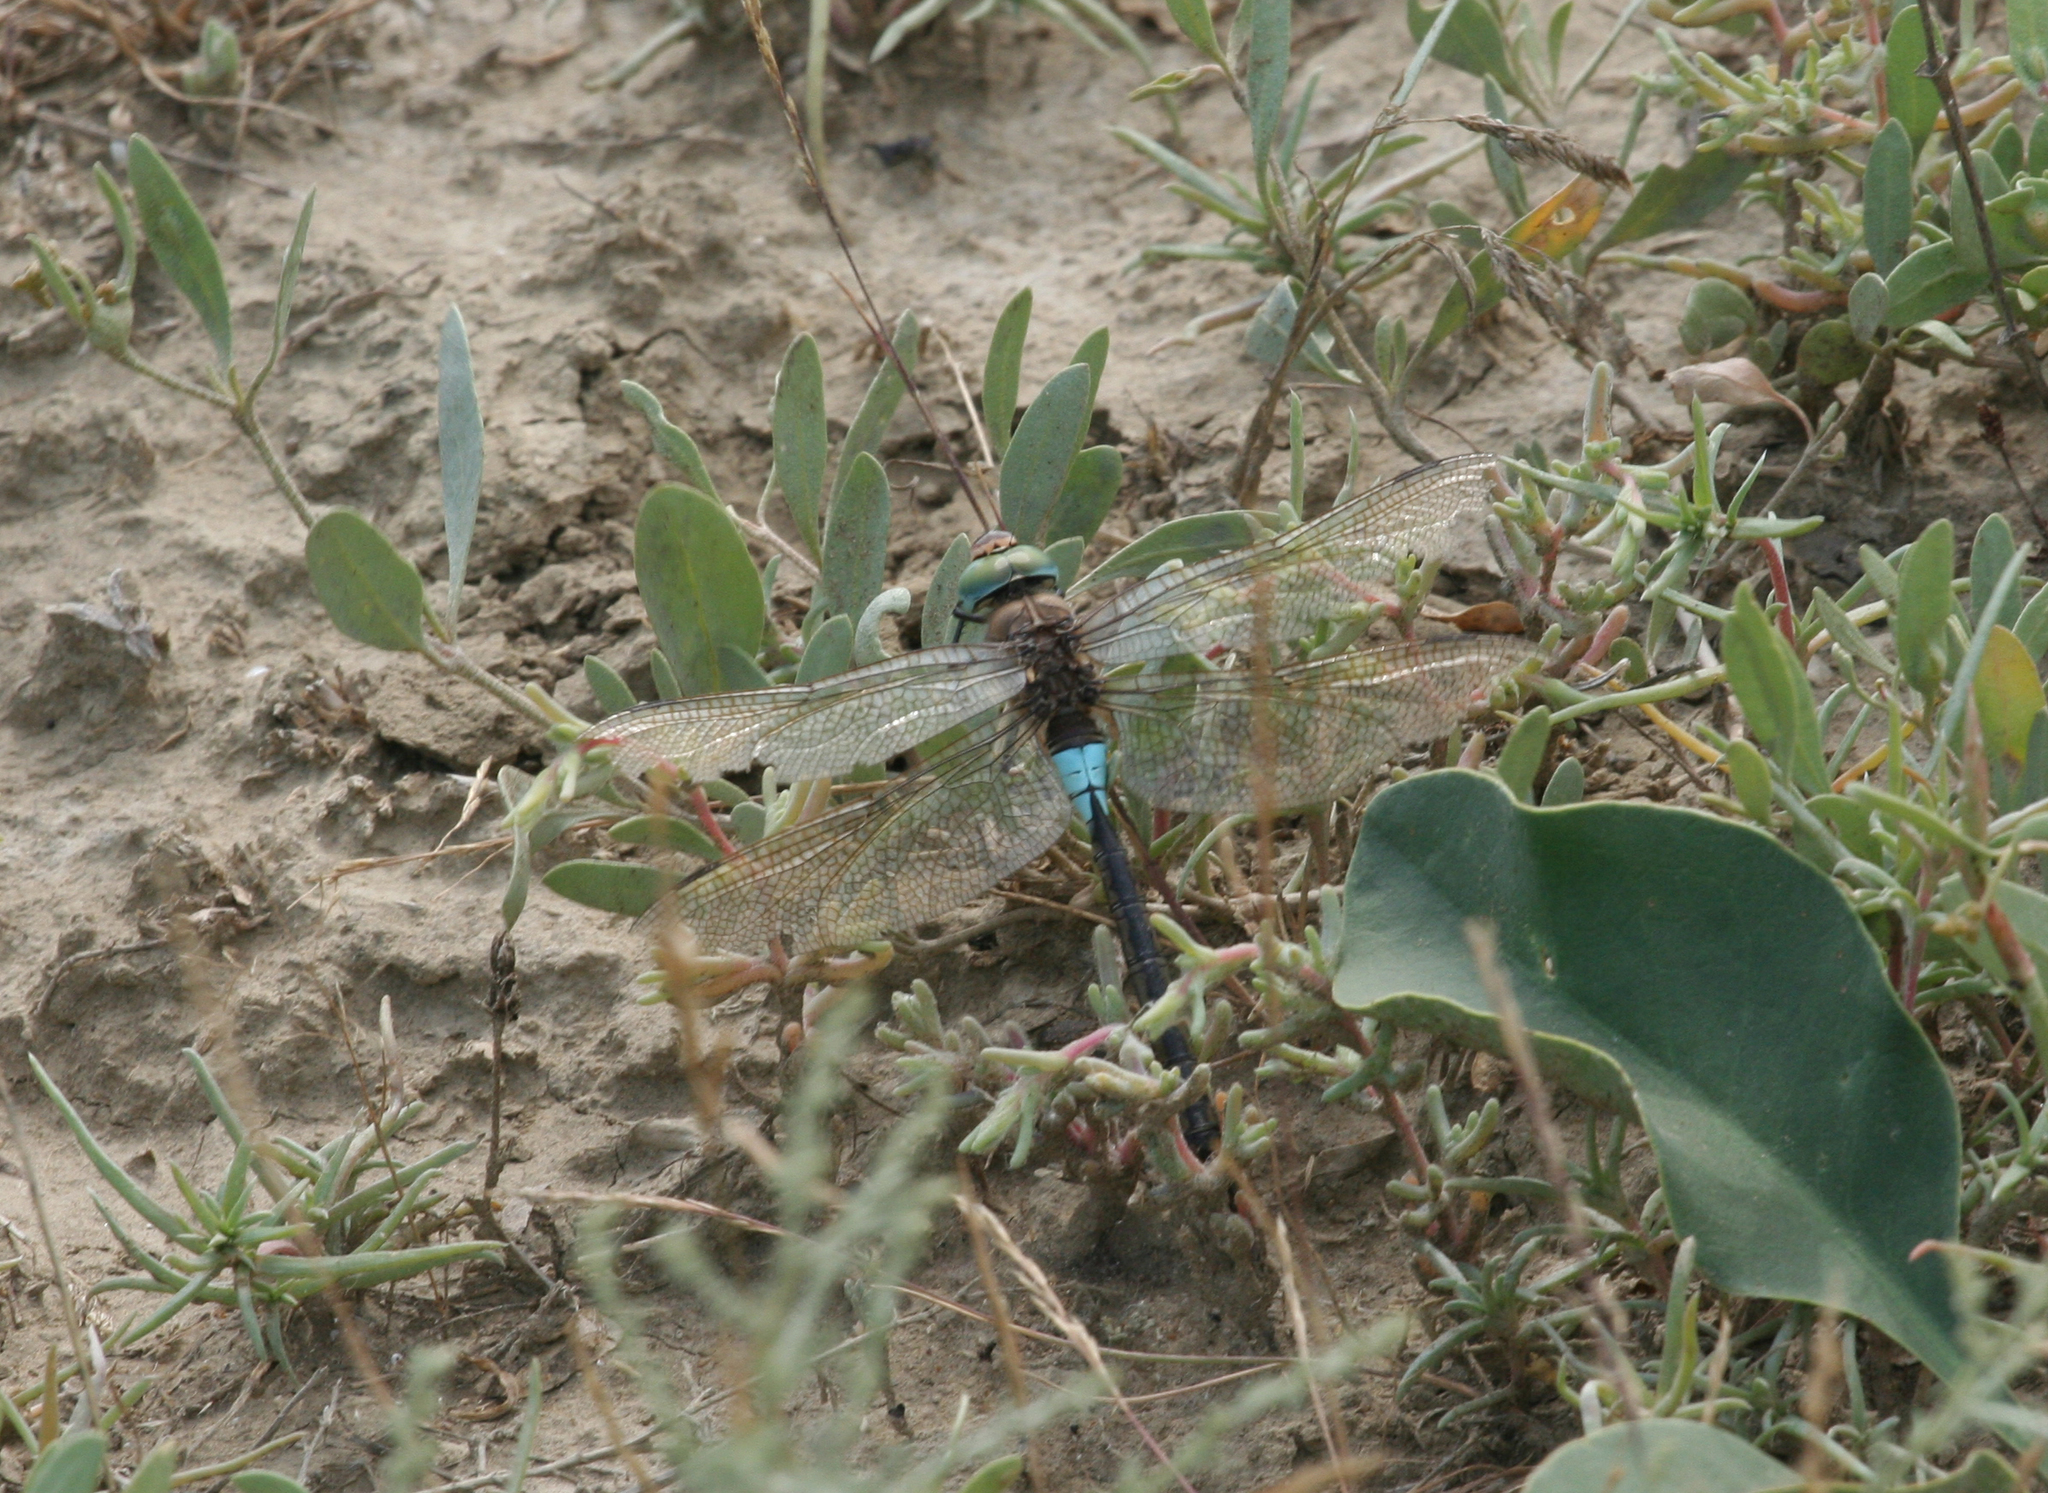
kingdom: Animalia
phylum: Arthropoda
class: Insecta
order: Odonata
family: Aeshnidae
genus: Anax
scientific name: Anax parthenope
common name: Lesser emperor
